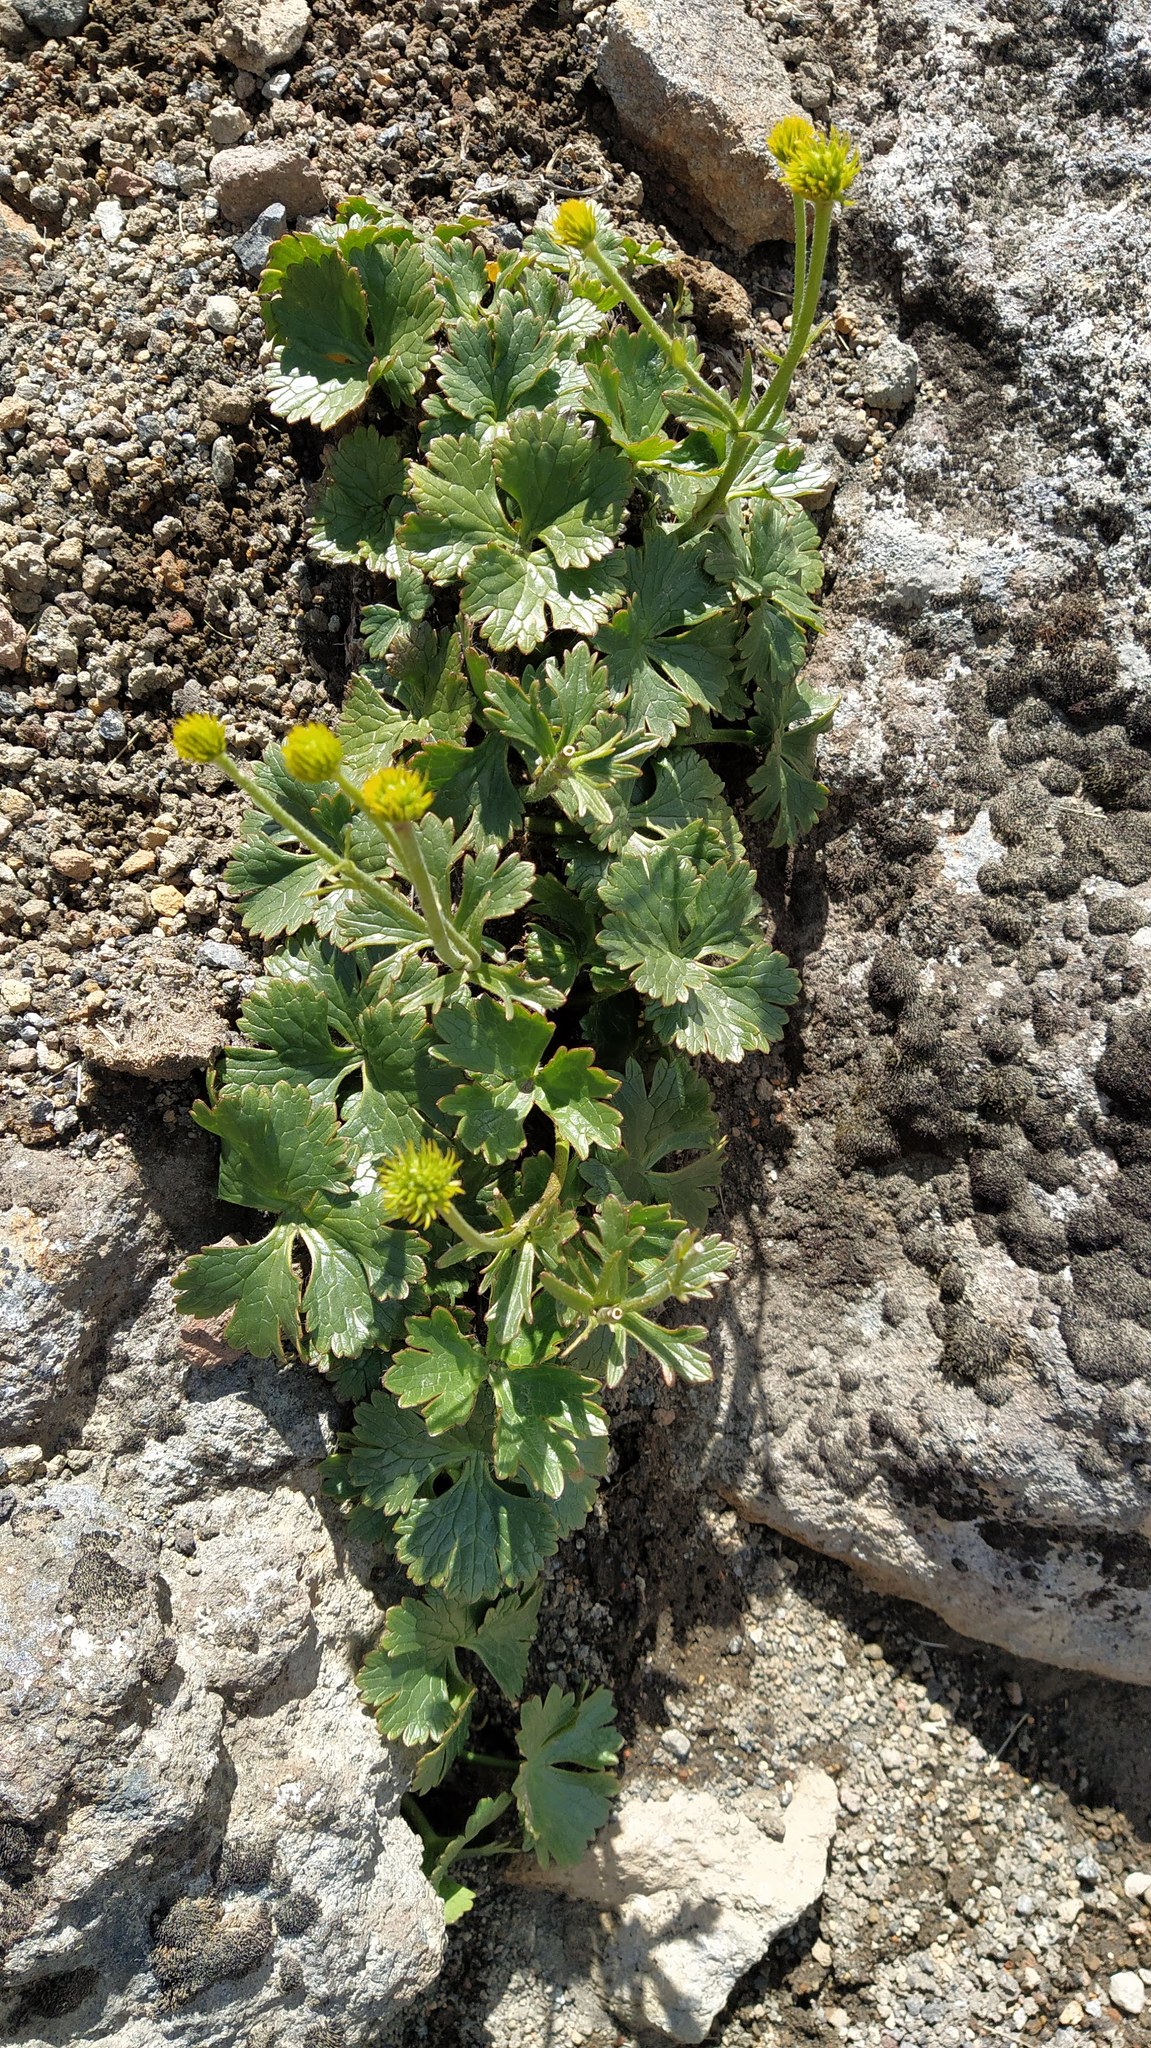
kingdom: Plantae
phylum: Tracheophyta
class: Magnoliopsida
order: Ranunculales
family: Ranunculaceae
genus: Ranunculus
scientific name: Ranunculus nivicola
